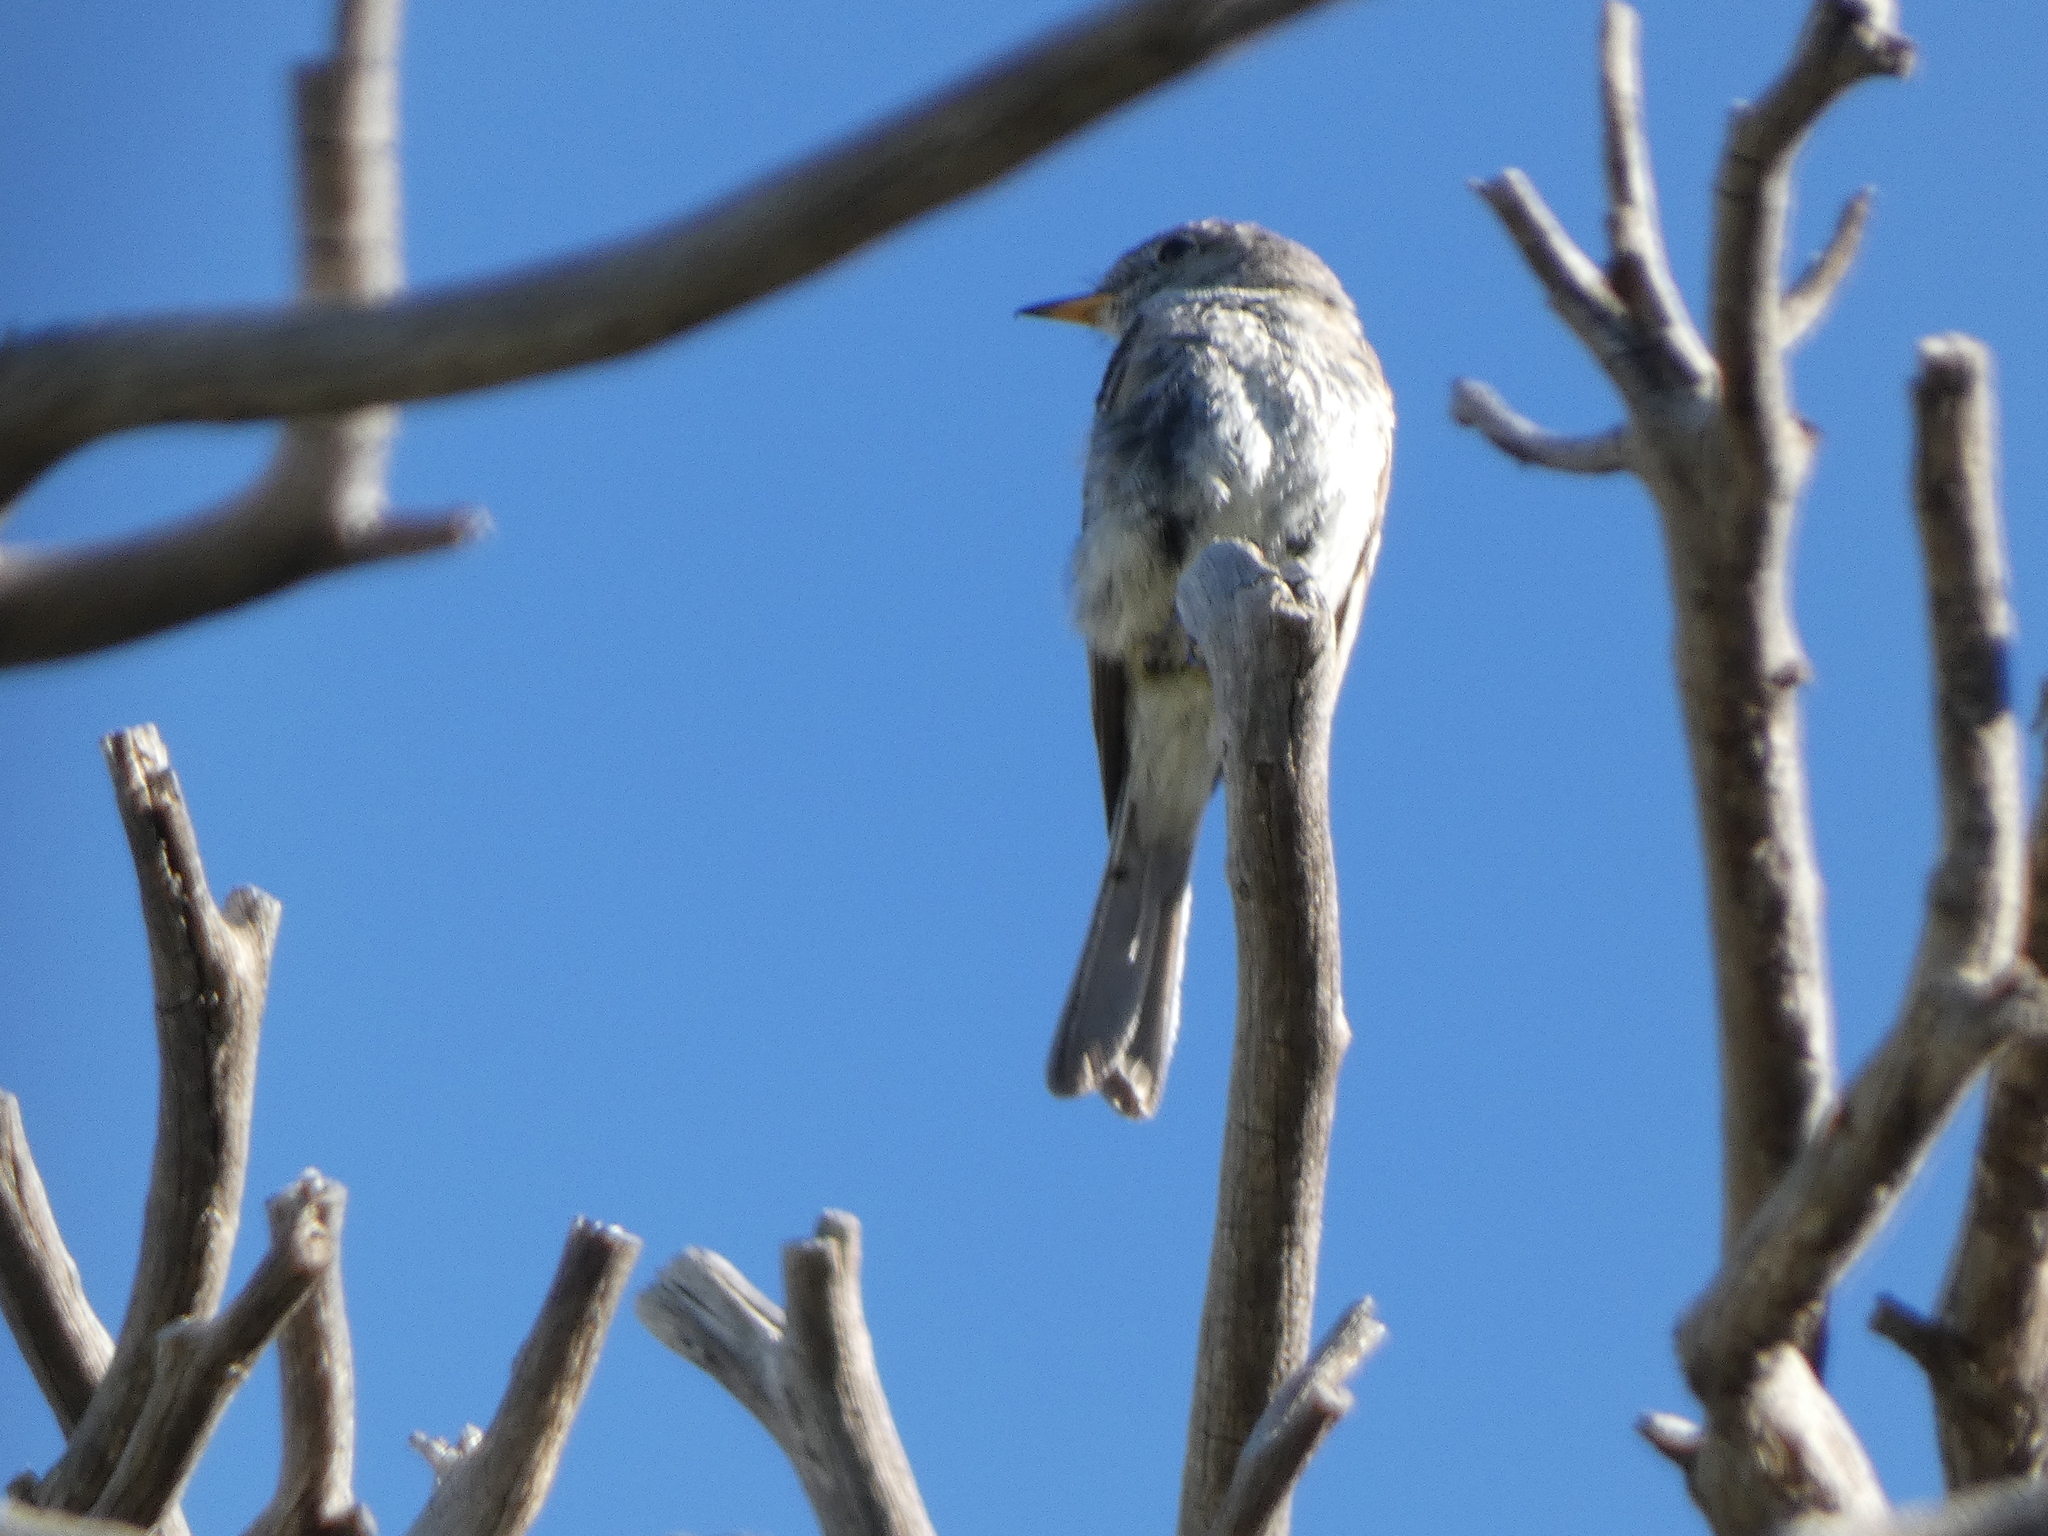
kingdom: Animalia
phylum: Chordata
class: Aves
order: Passeriformes
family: Tyrannidae
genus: Empidonax
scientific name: Empidonax wrightii
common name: Gray flycatcher
